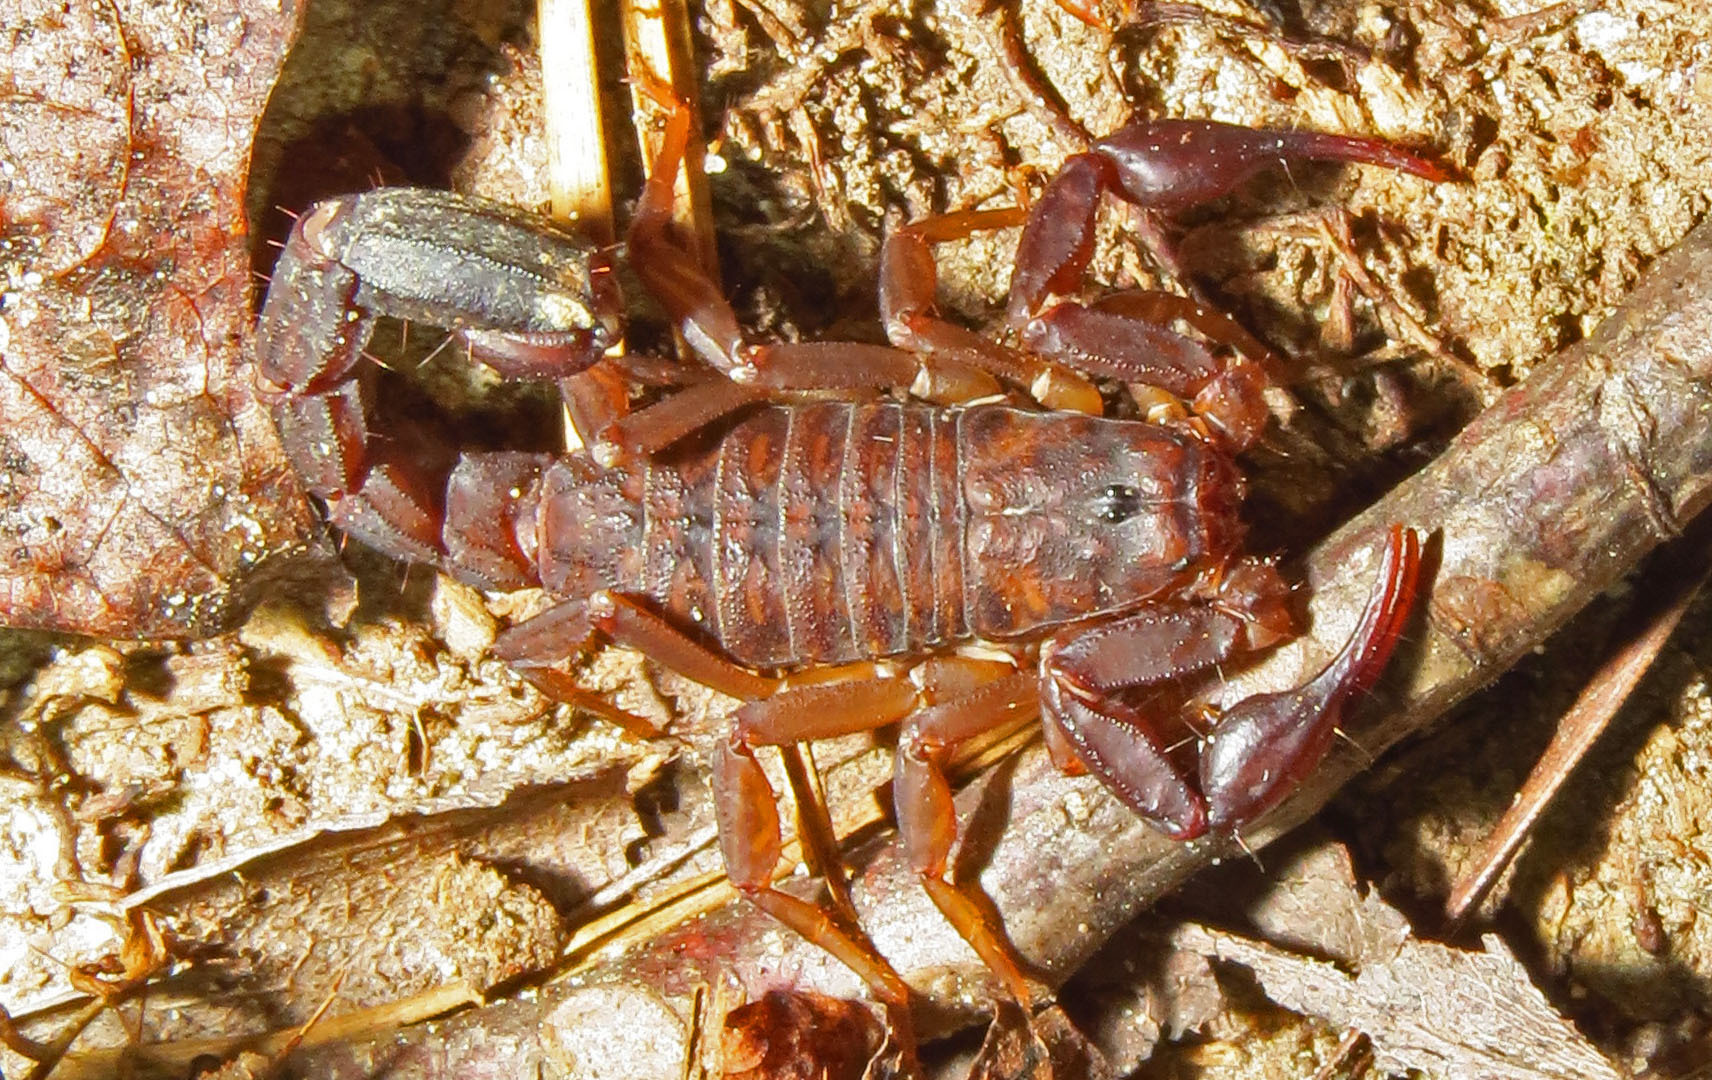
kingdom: Animalia
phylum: Arthropoda
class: Arachnida
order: Scorpiones
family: Vaejovidae
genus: Vaejovis
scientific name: Vaejovis carolinianus
